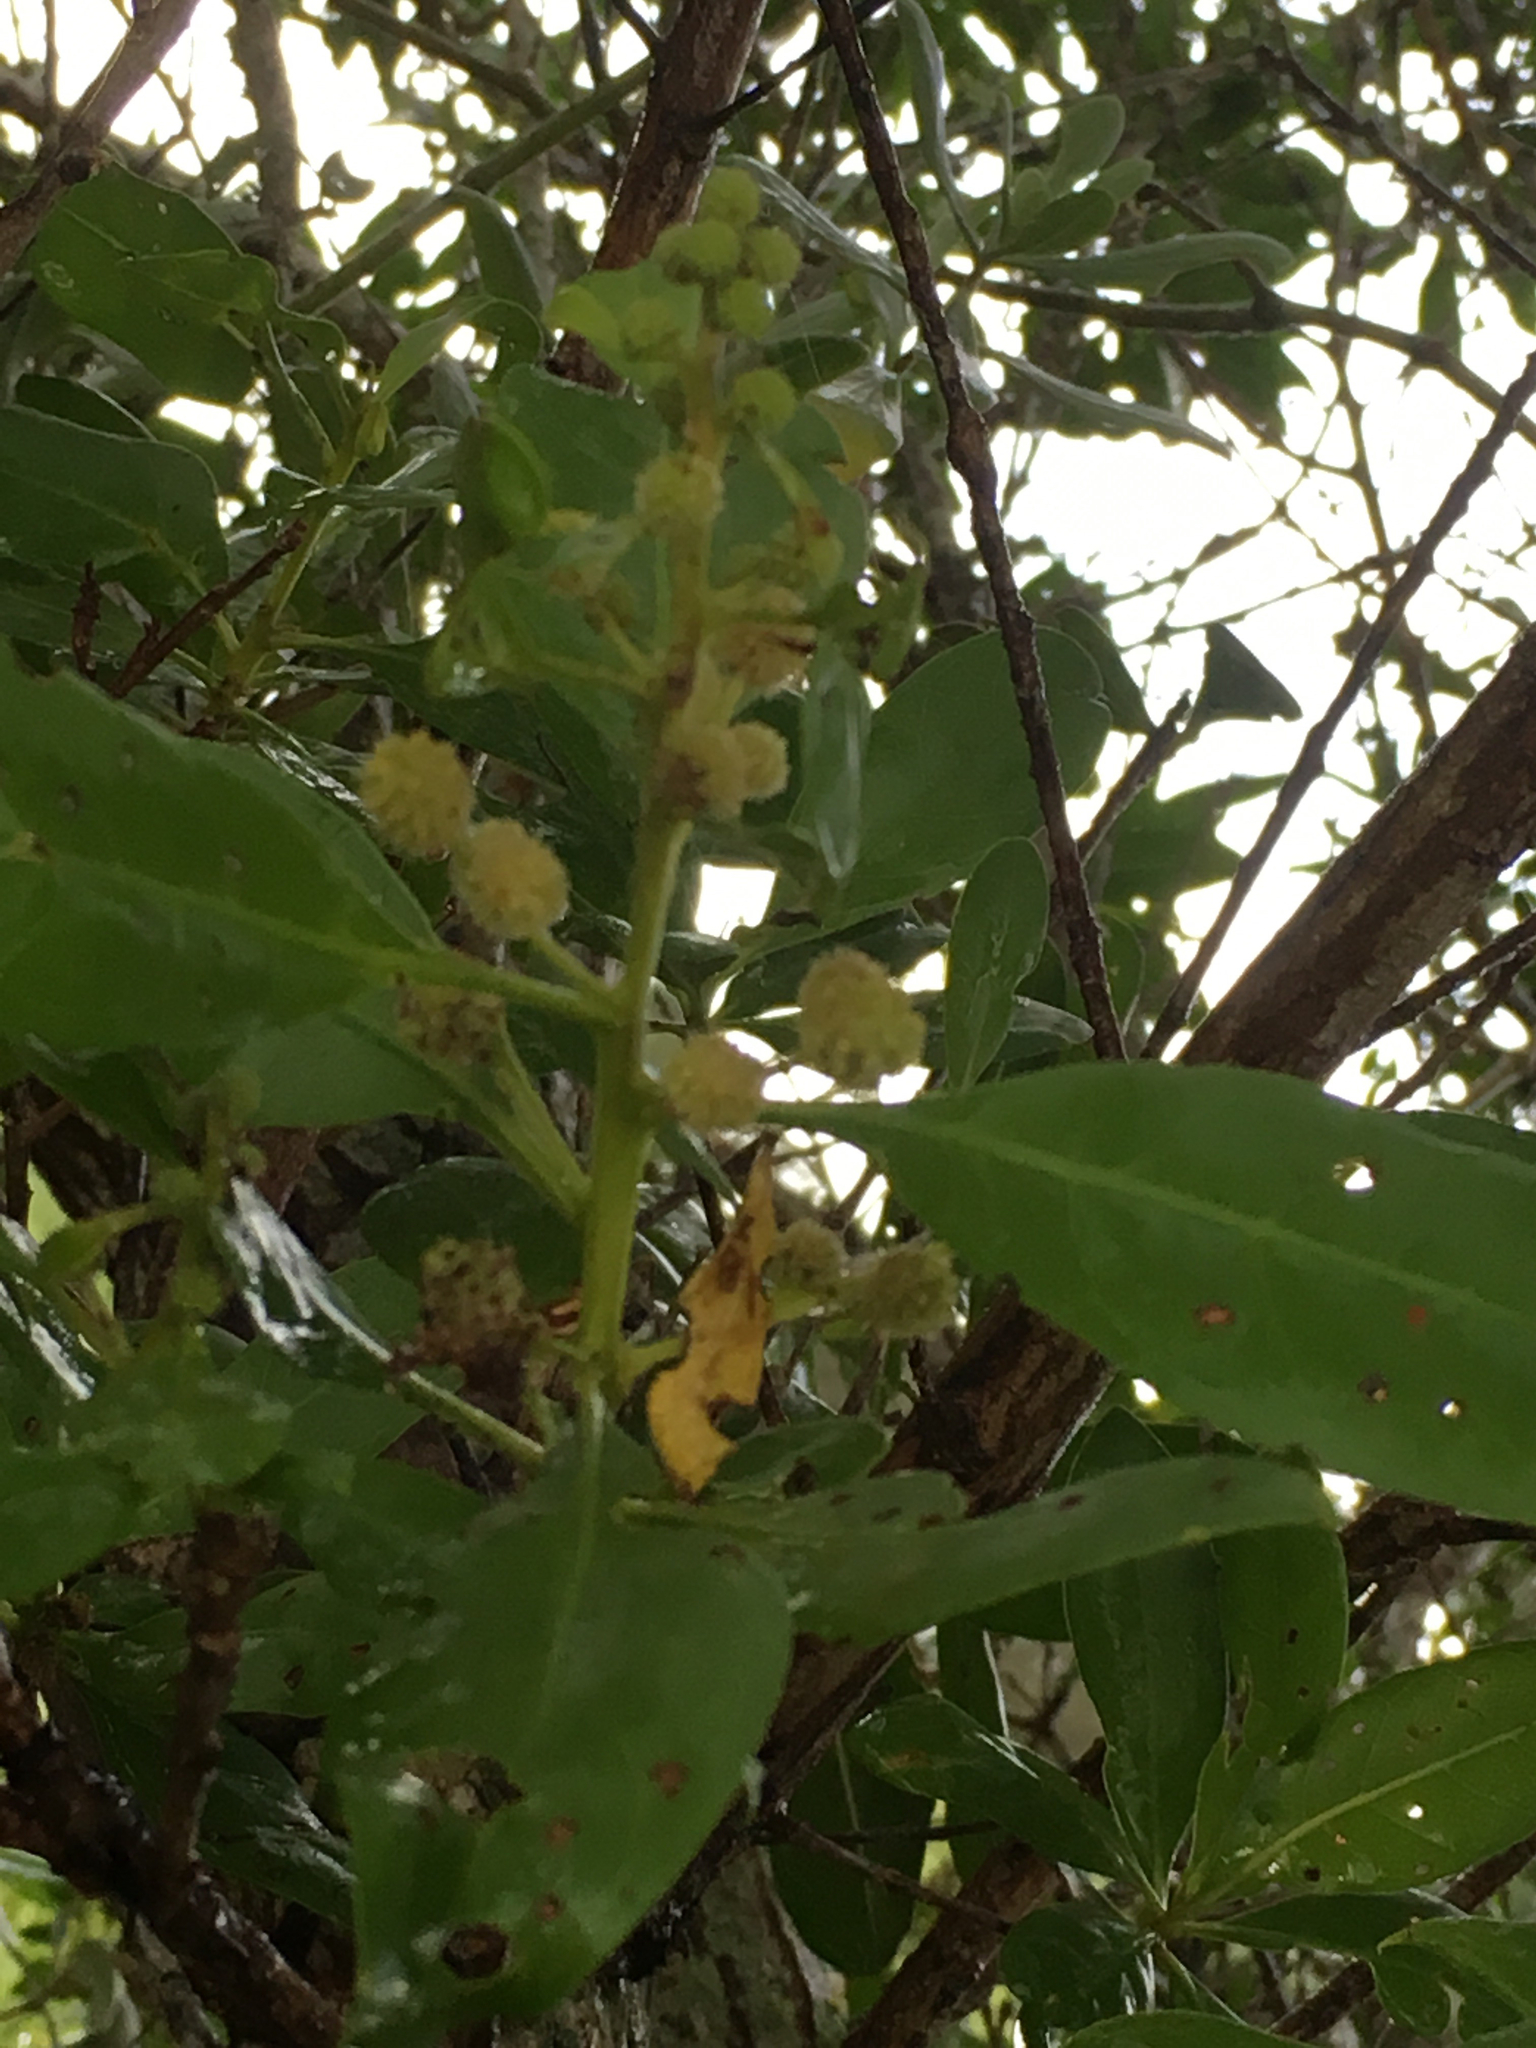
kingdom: Plantae
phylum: Tracheophyta
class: Magnoliopsida
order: Myrtales
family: Combretaceae
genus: Conocarpus
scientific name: Conocarpus erectus
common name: Button mangrove
